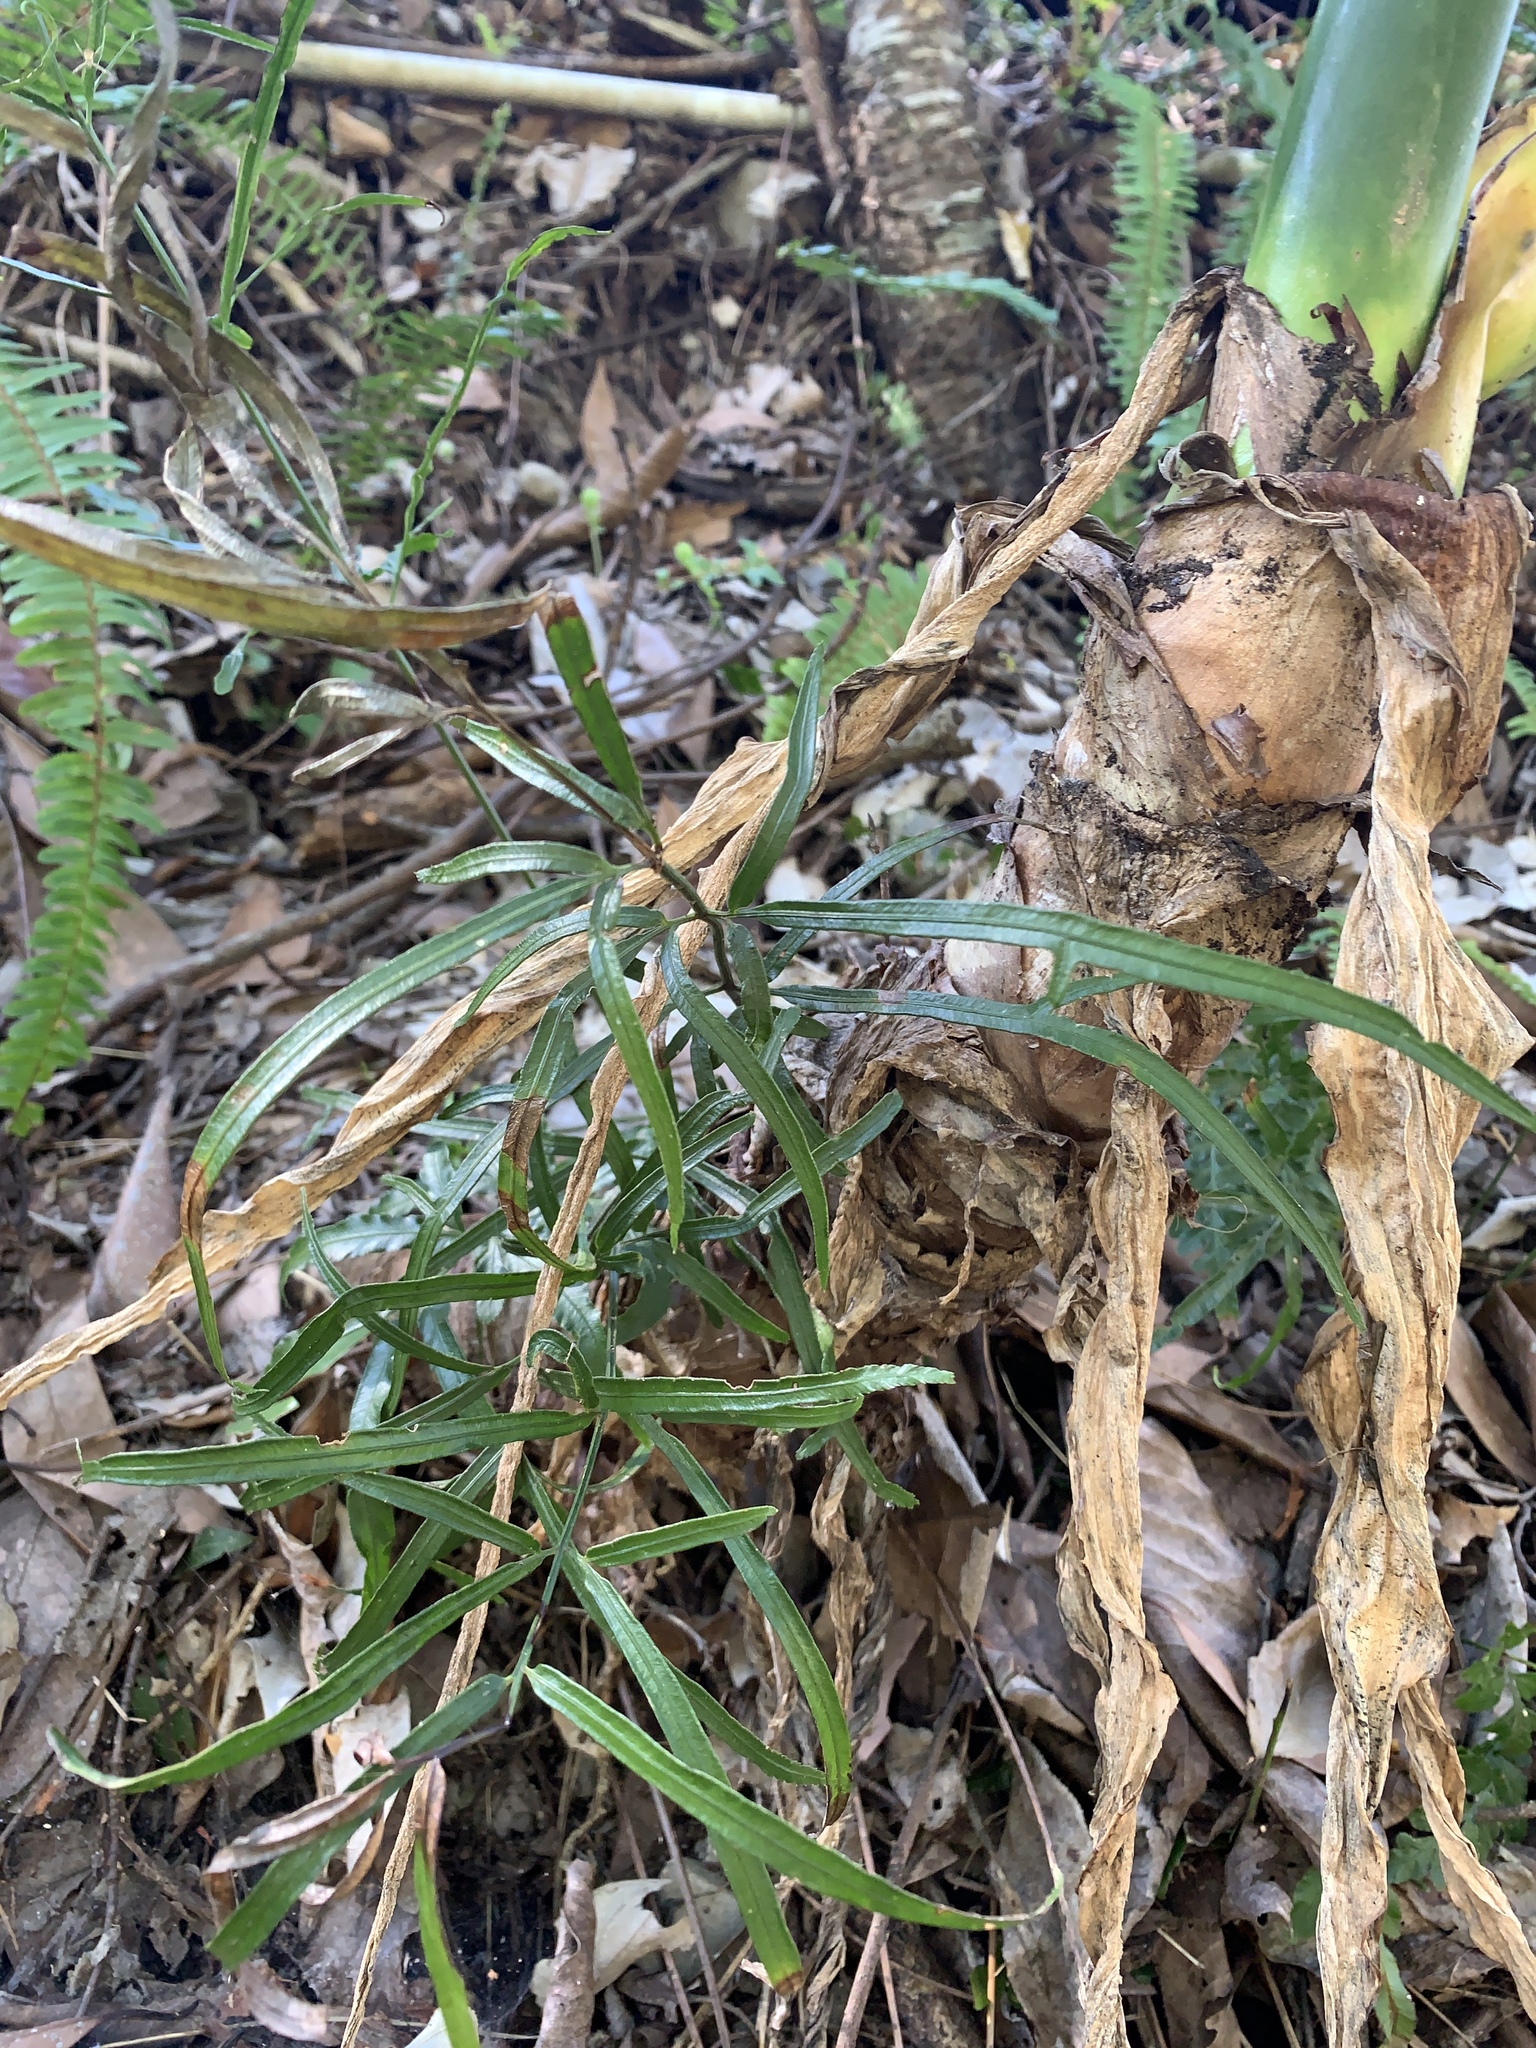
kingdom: Plantae
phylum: Tracheophyta
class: Polypodiopsida
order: Polypodiales
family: Pteridaceae
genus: Pteris
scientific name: Pteris ensiformis
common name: Sword brake
